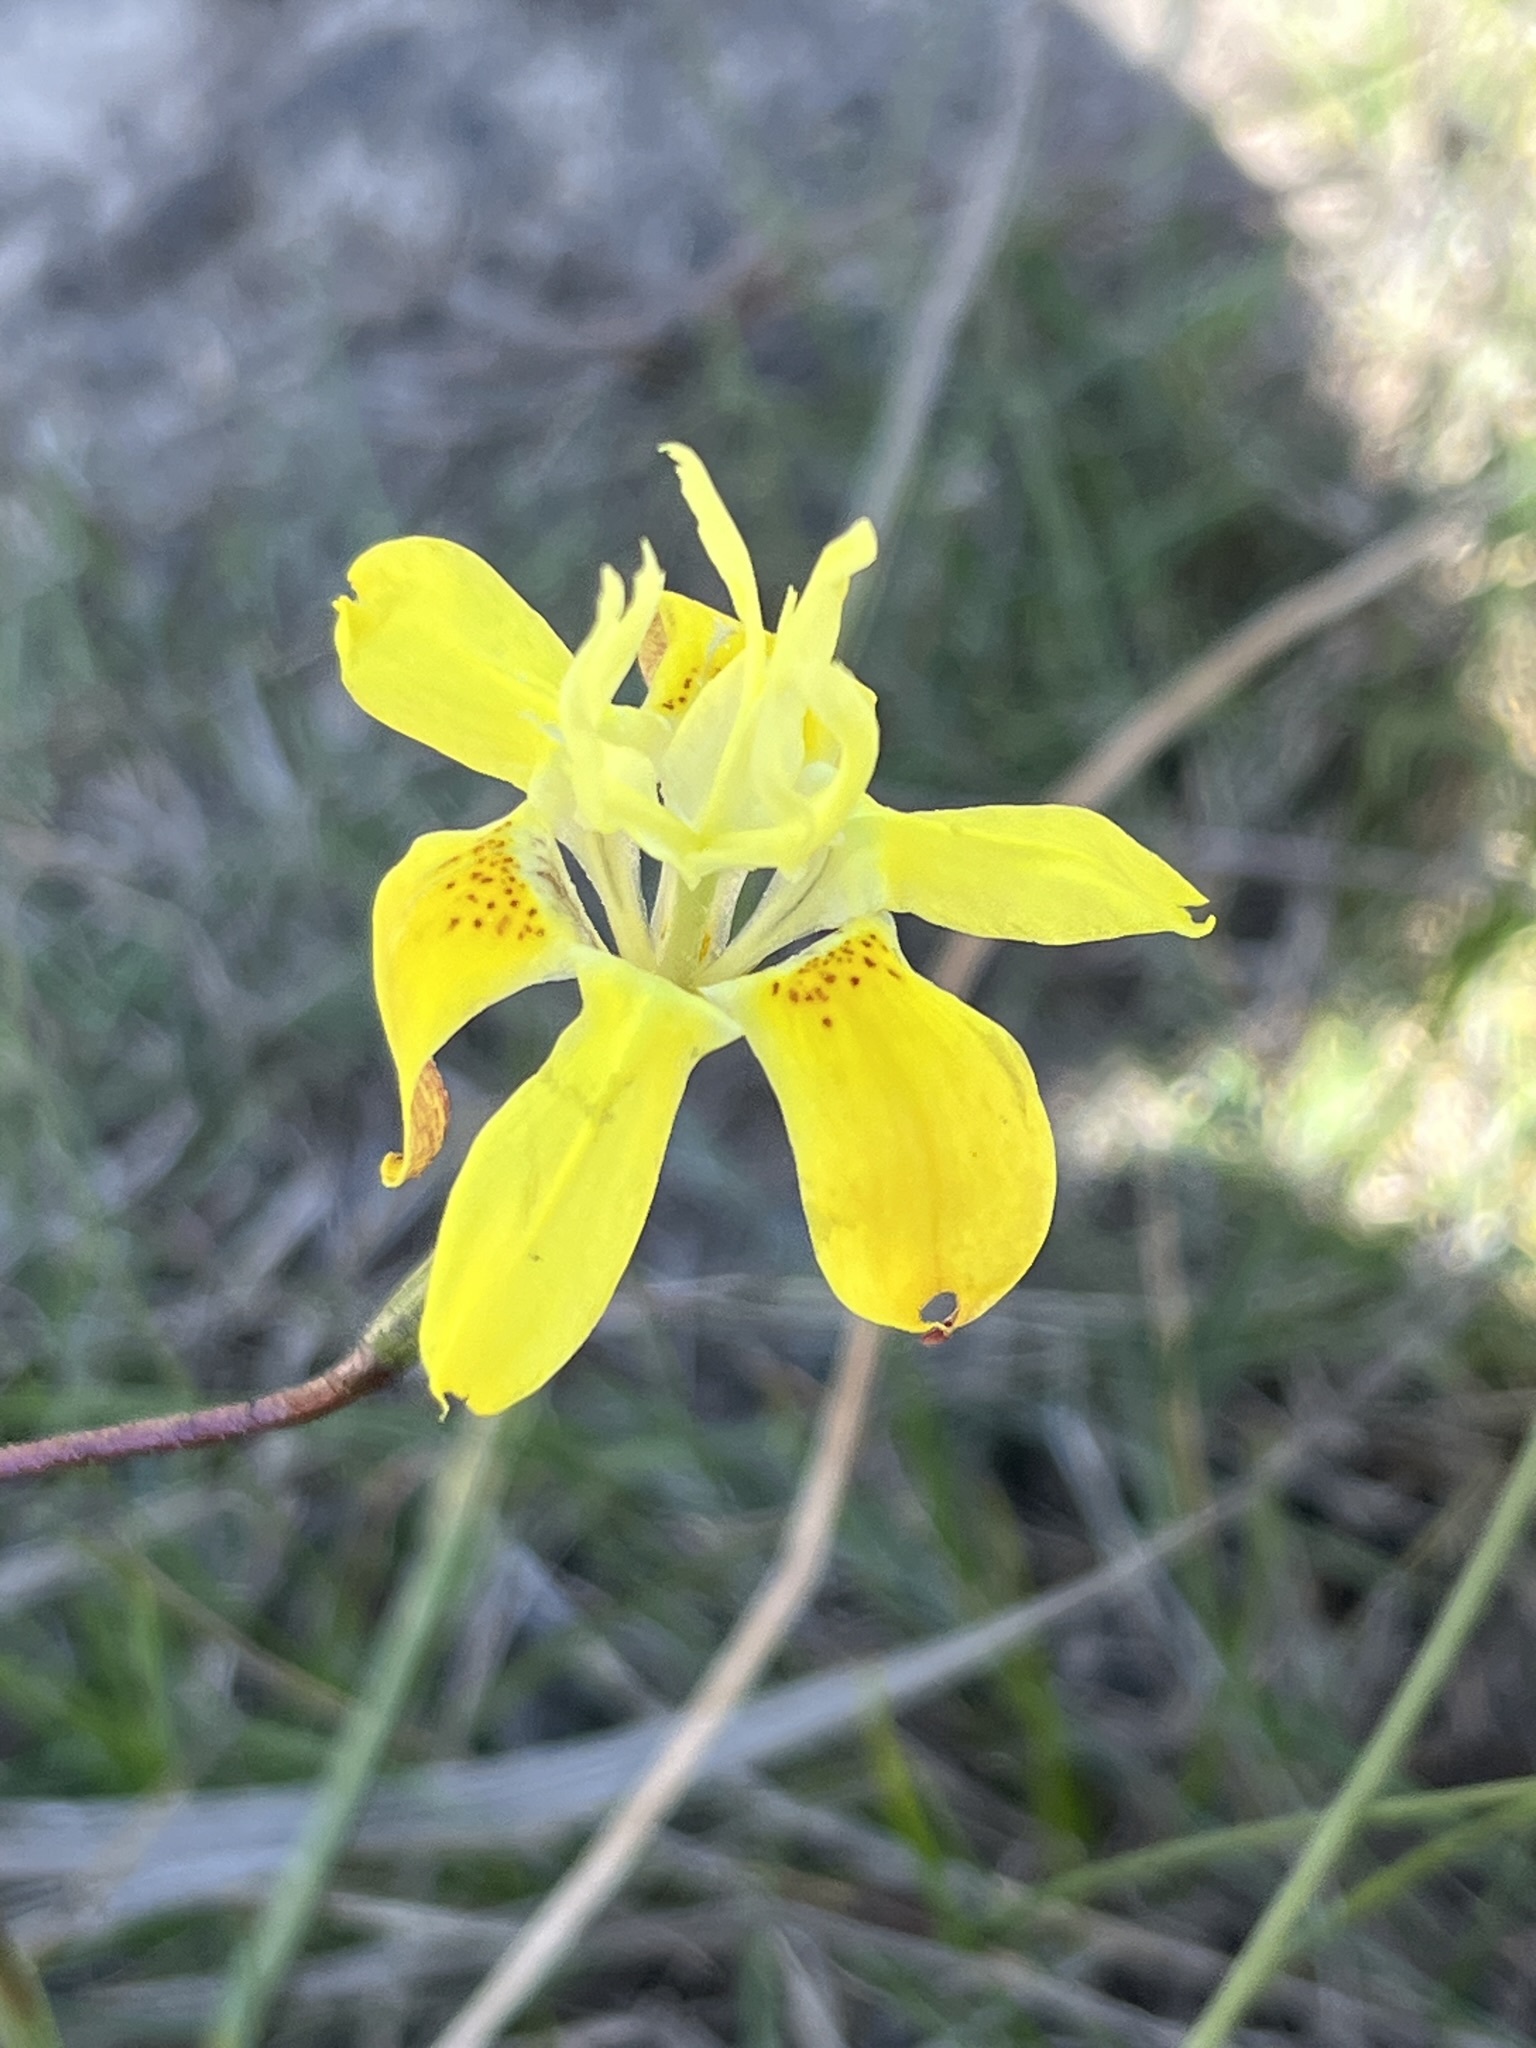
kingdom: Plantae
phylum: Tracheophyta
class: Liliopsida
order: Asparagales
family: Iridaceae
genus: Moraea
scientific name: Moraea bituminosa
